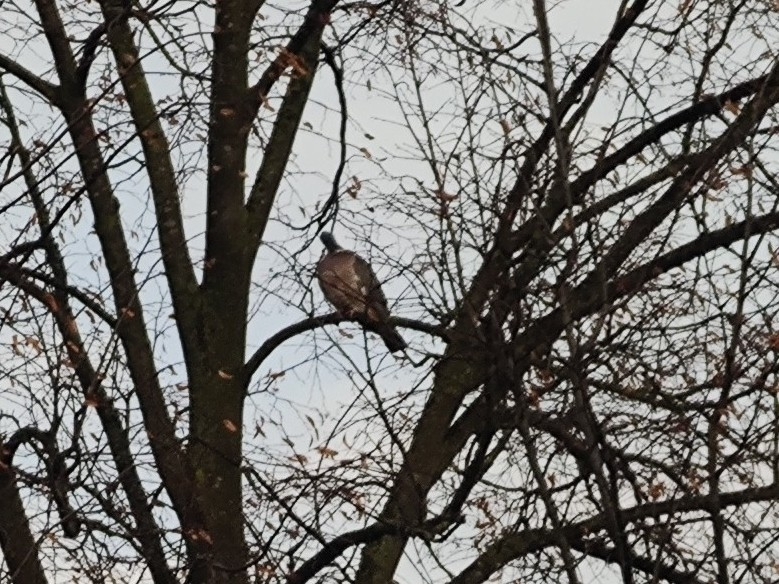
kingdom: Animalia
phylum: Chordata
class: Aves
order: Columbiformes
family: Columbidae
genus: Columba
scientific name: Columba palumbus
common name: Common wood pigeon
